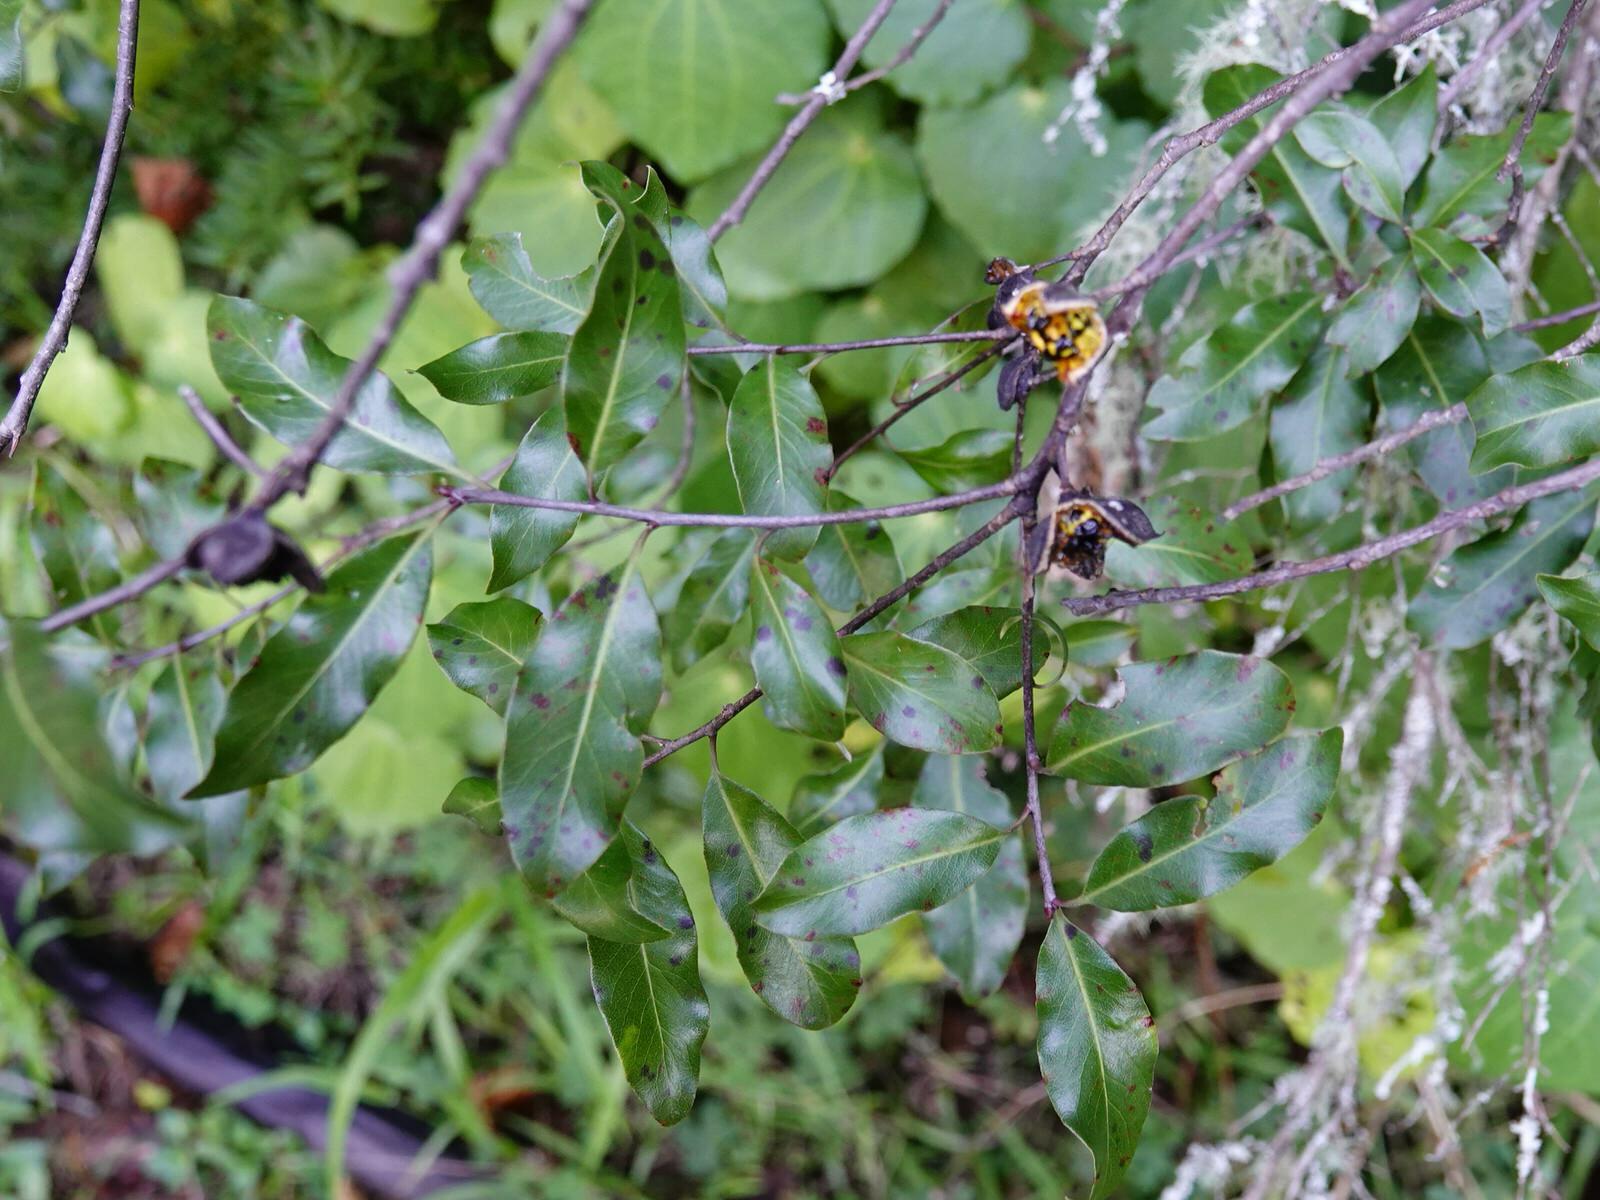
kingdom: Plantae
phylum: Tracheophyta
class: Magnoliopsida
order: Apiales
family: Pittosporaceae
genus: Pittosporum
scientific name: Pittosporum tenuifolium
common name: Kohuhu
